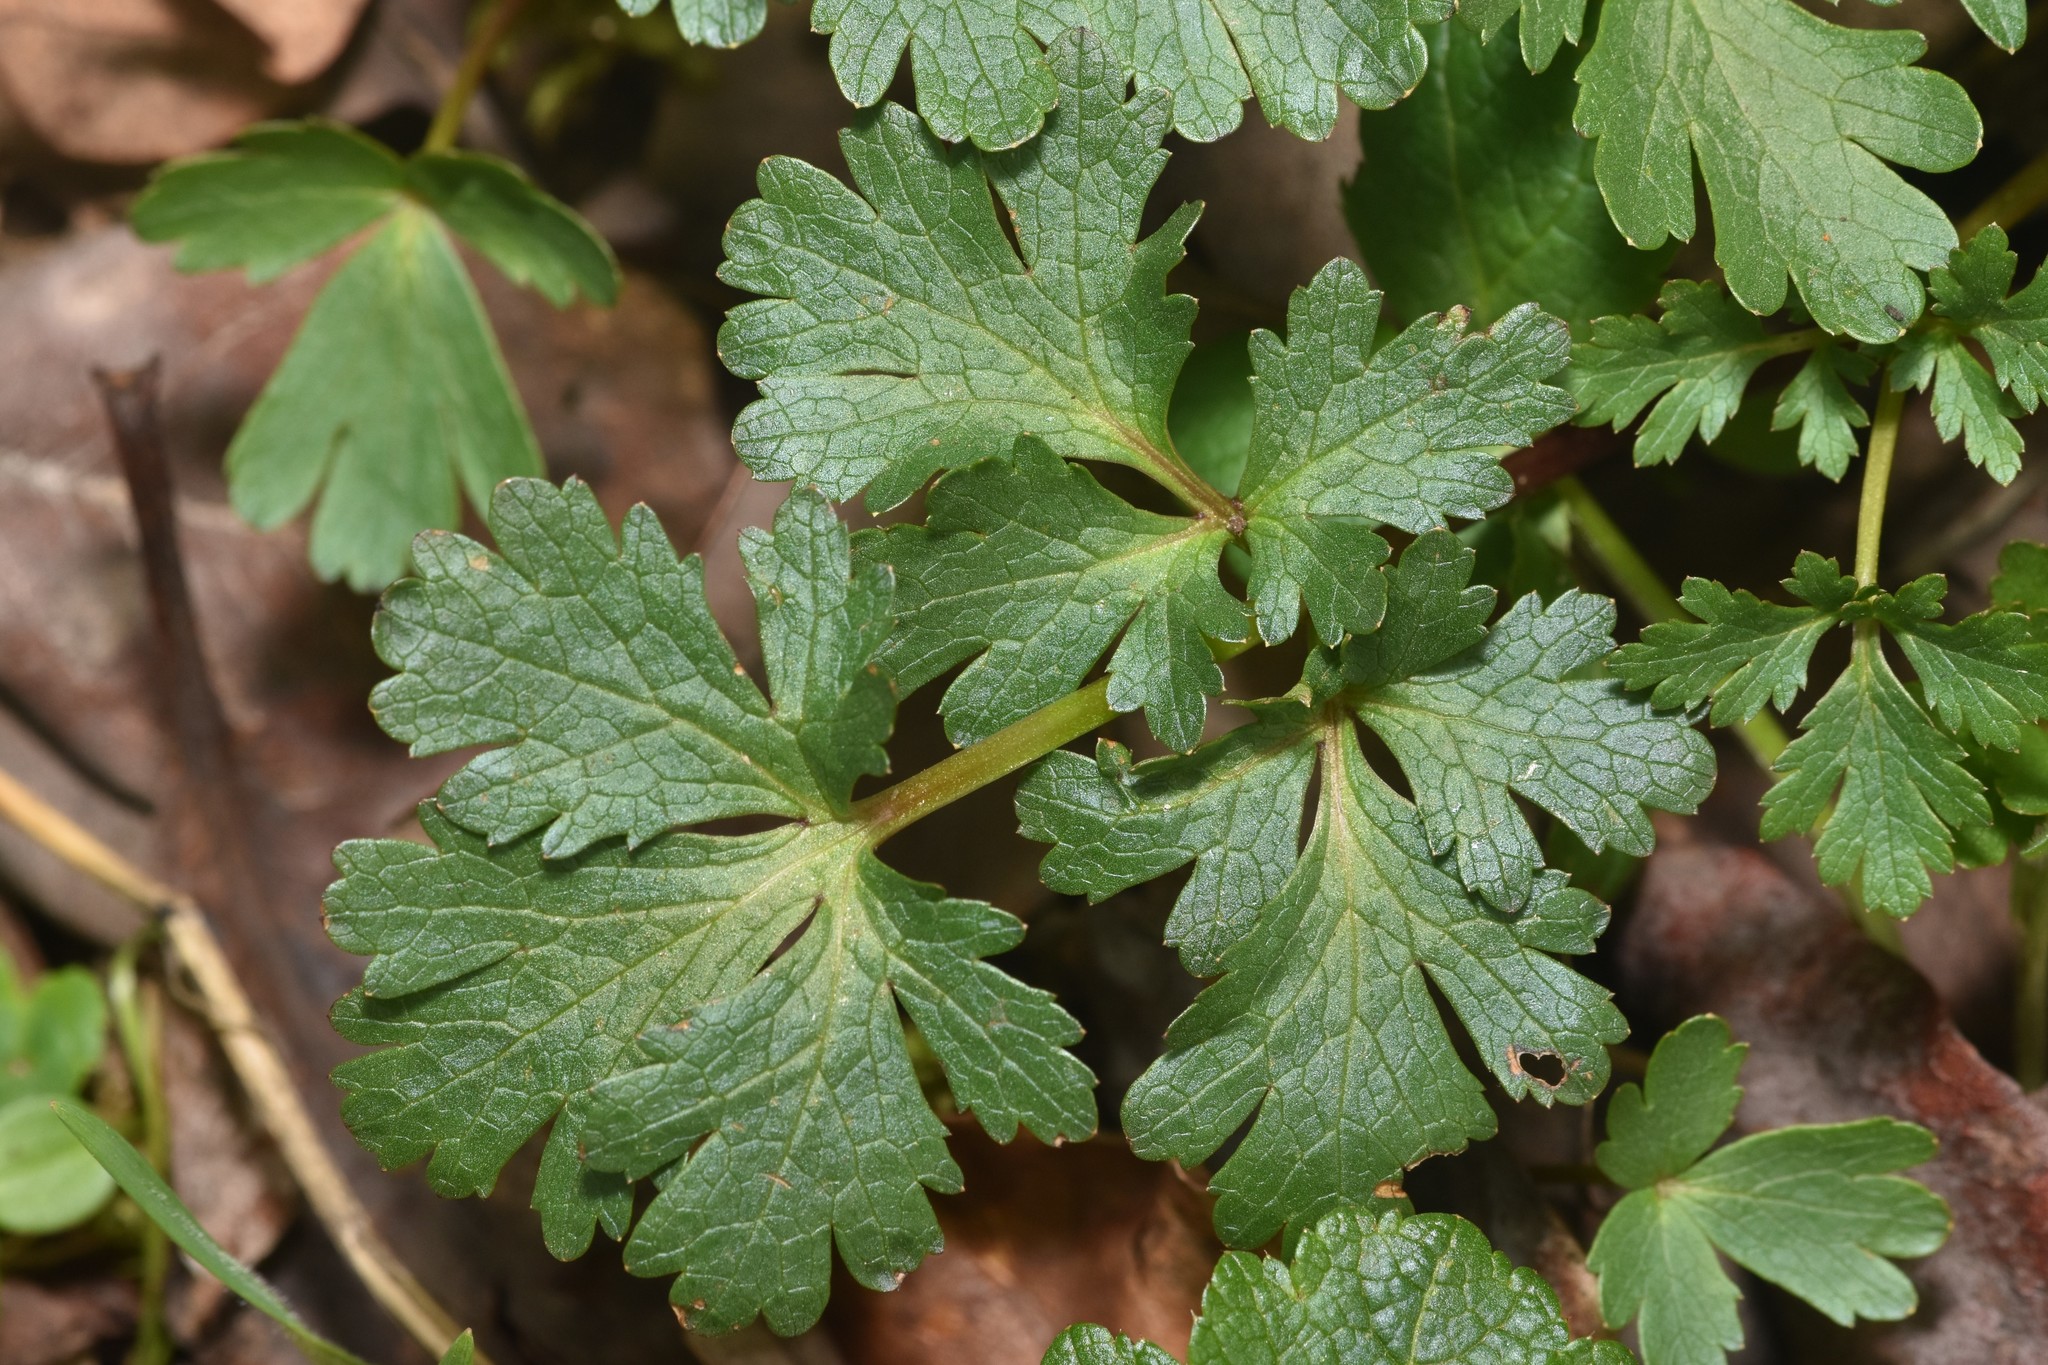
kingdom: Plantae
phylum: Tracheophyta
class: Magnoliopsida
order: Apiales
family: Apiaceae
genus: Sanicula
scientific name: Sanicula graveolens
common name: Sierra sanicle
